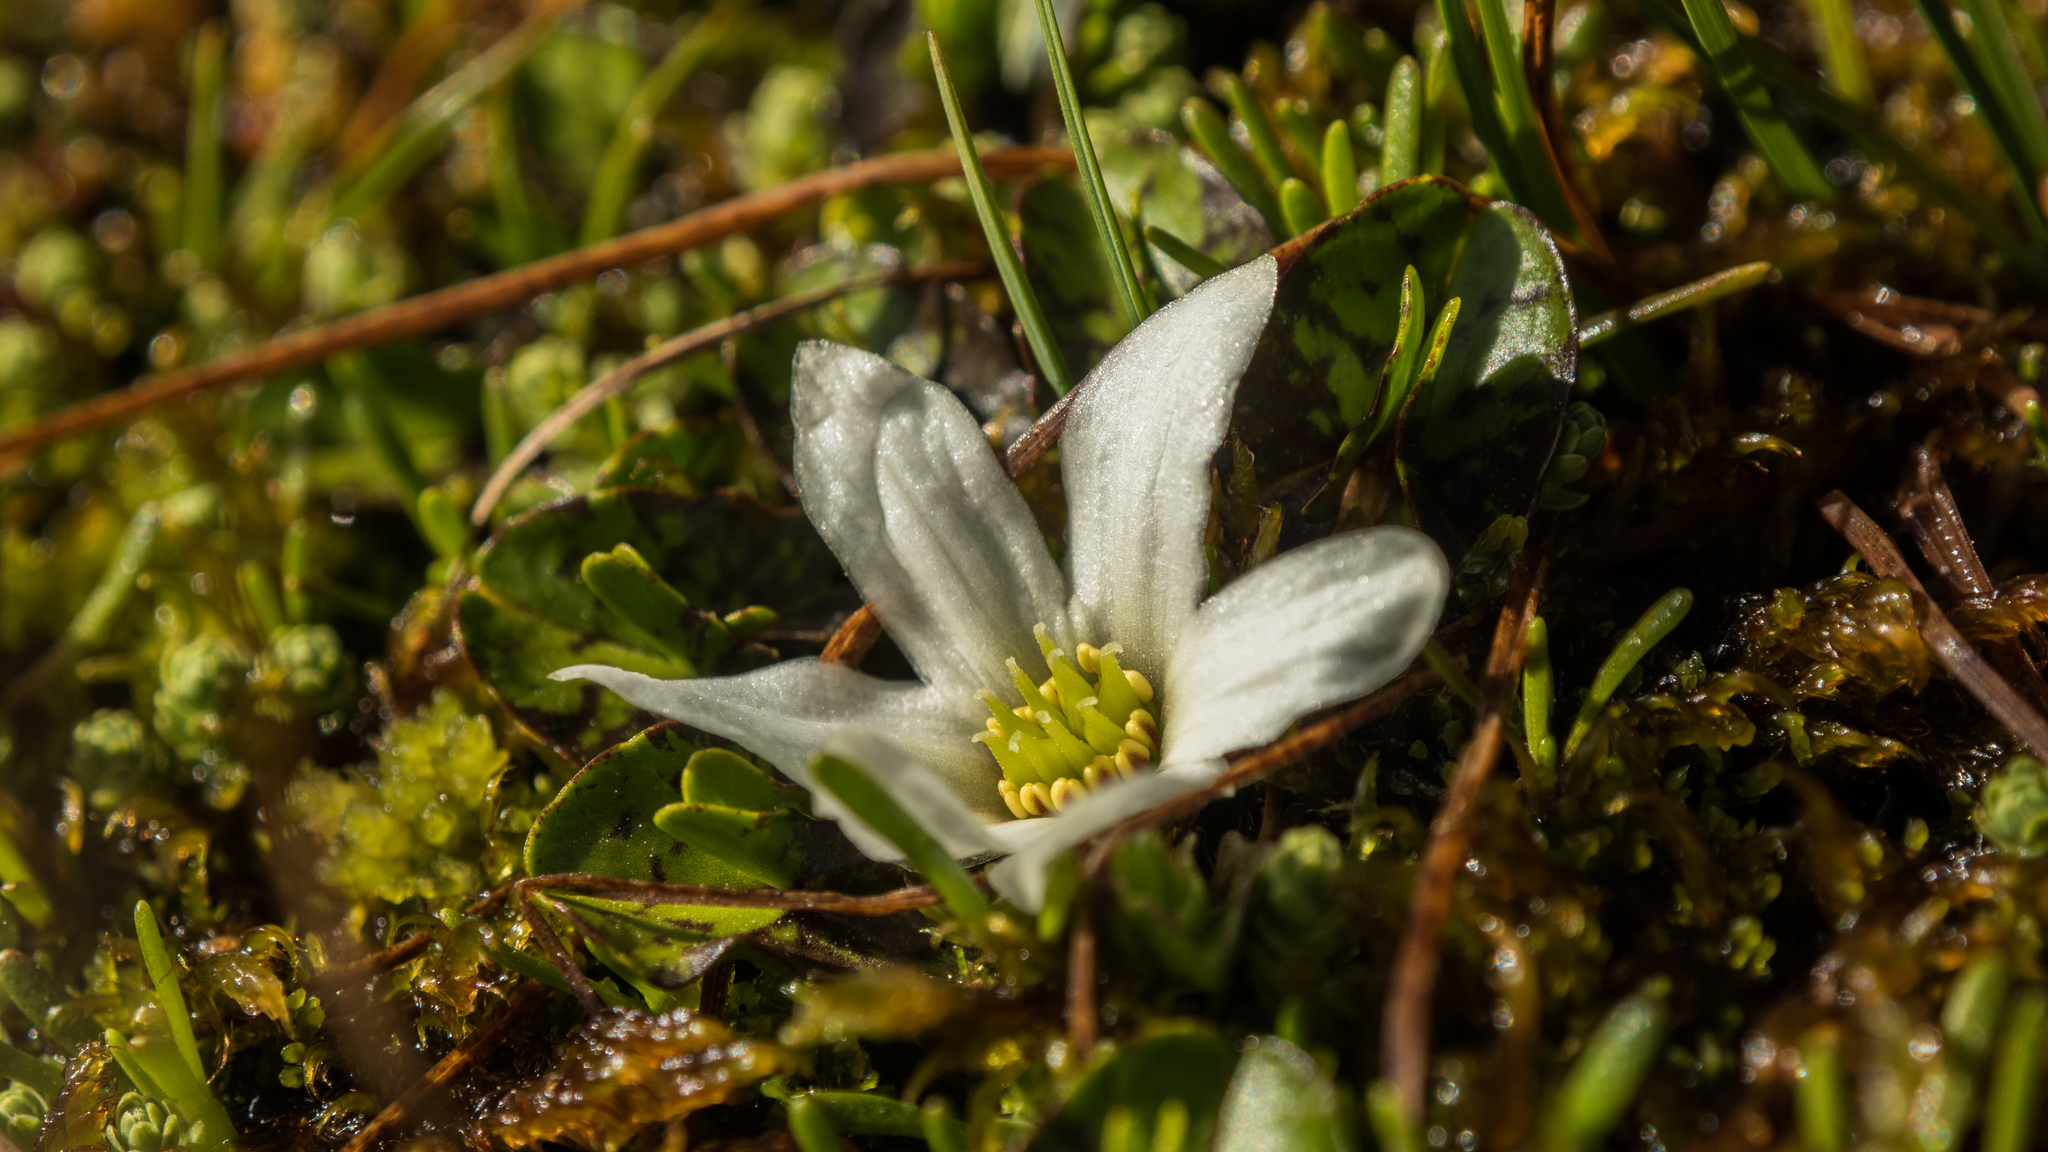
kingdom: Plantae
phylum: Tracheophyta
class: Magnoliopsida
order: Ranunculales
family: Ranunculaceae
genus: Caltha
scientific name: Caltha obtusa
